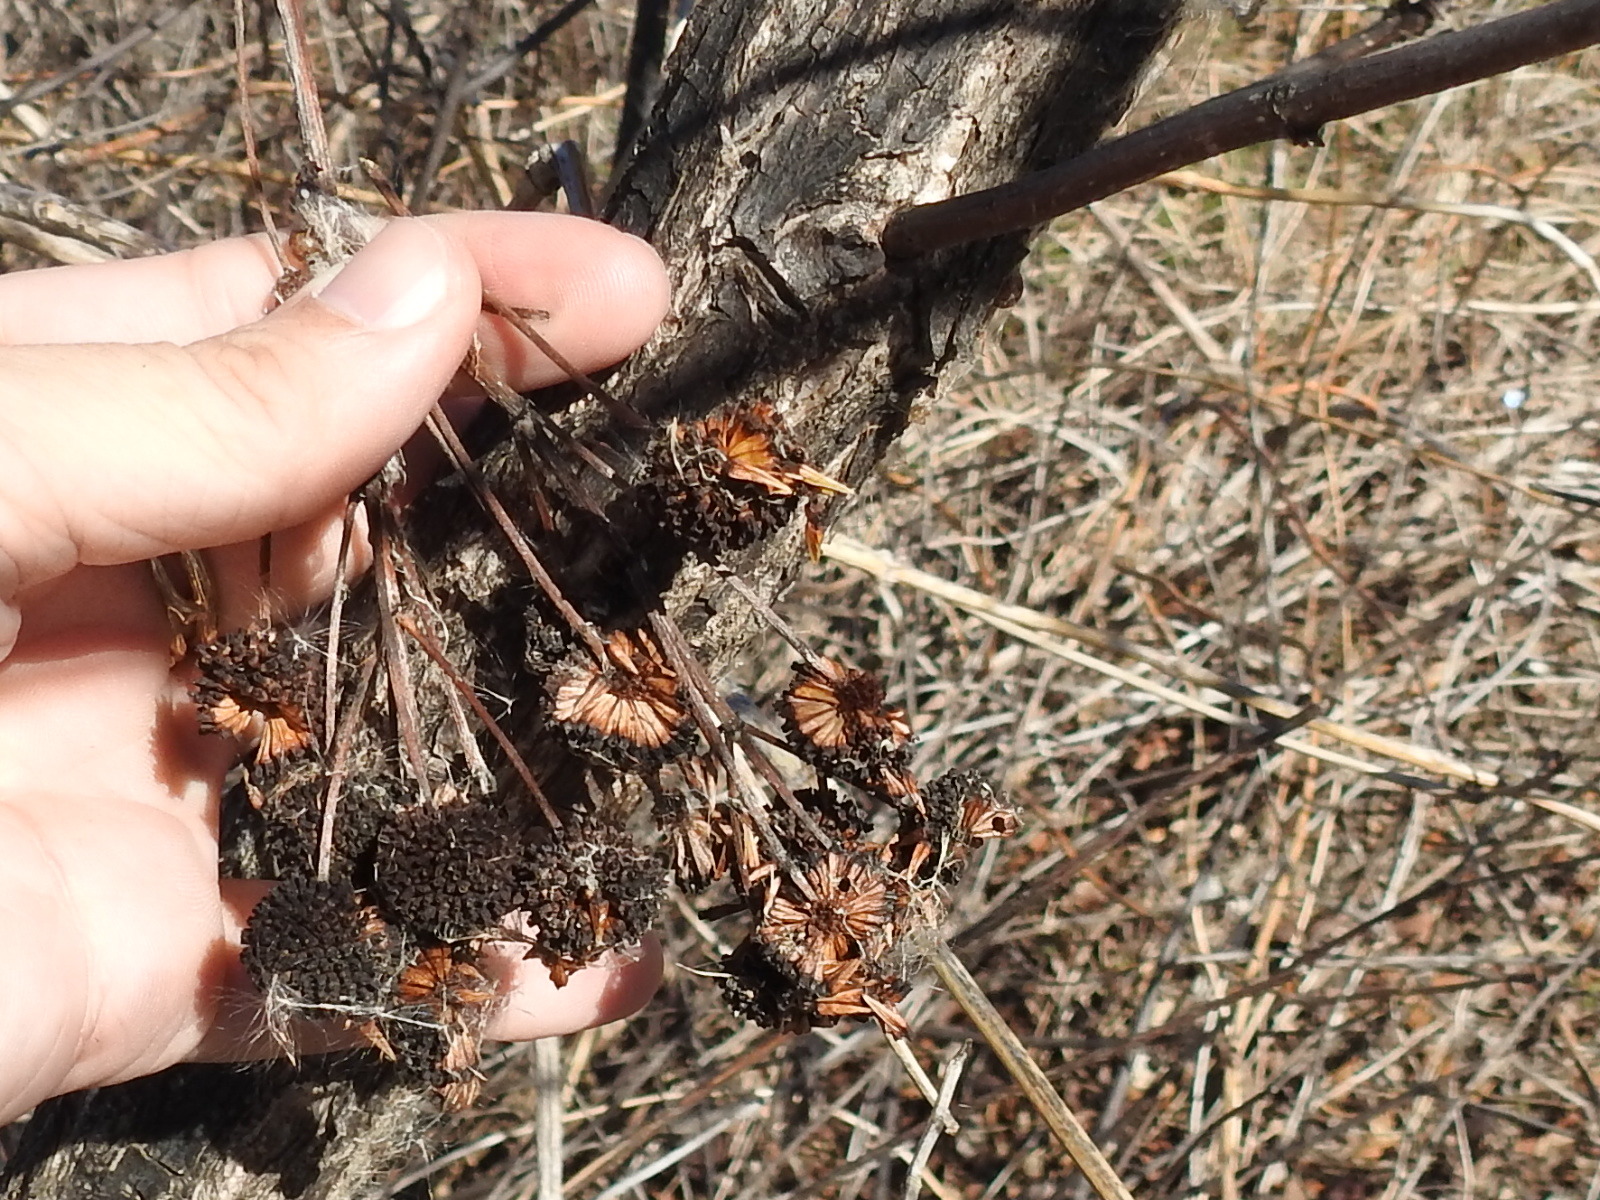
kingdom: Plantae
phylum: Tracheophyta
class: Magnoliopsida
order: Gentianales
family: Rubiaceae
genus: Cephalanthus
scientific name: Cephalanthus occidentalis
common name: Button-willow
